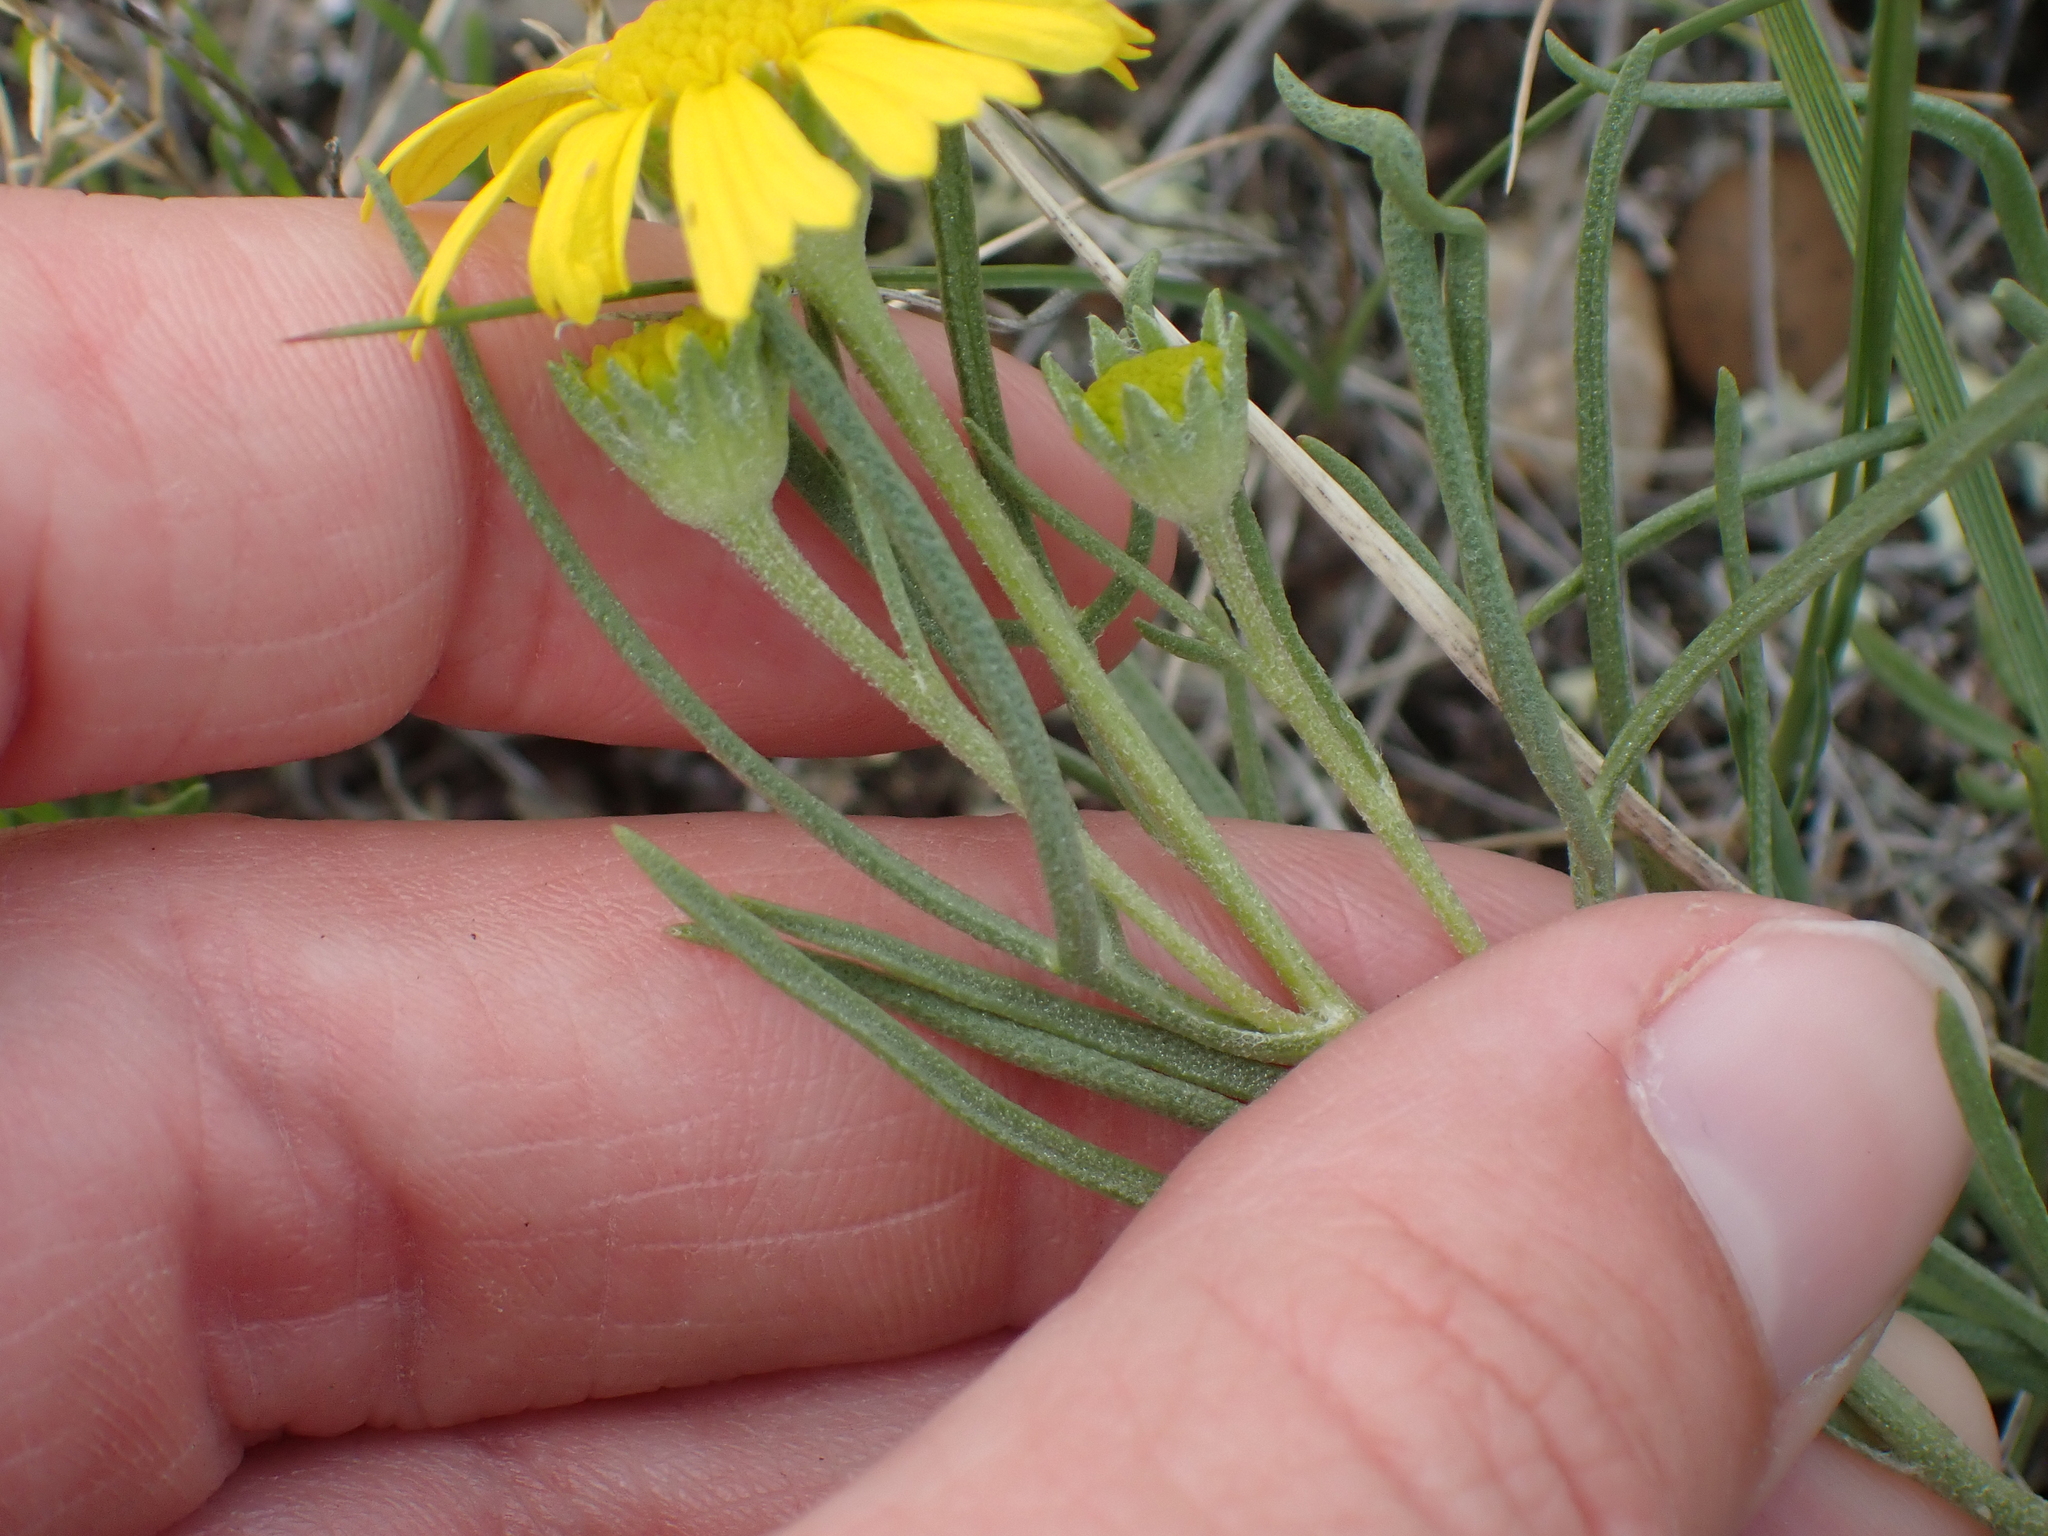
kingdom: Plantae
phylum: Tracheophyta
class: Magnoliopsida
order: Asterales
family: Asteraceae
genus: Hymenoxys
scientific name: Hymenoxys richardsonii
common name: Pingue rubberweed
